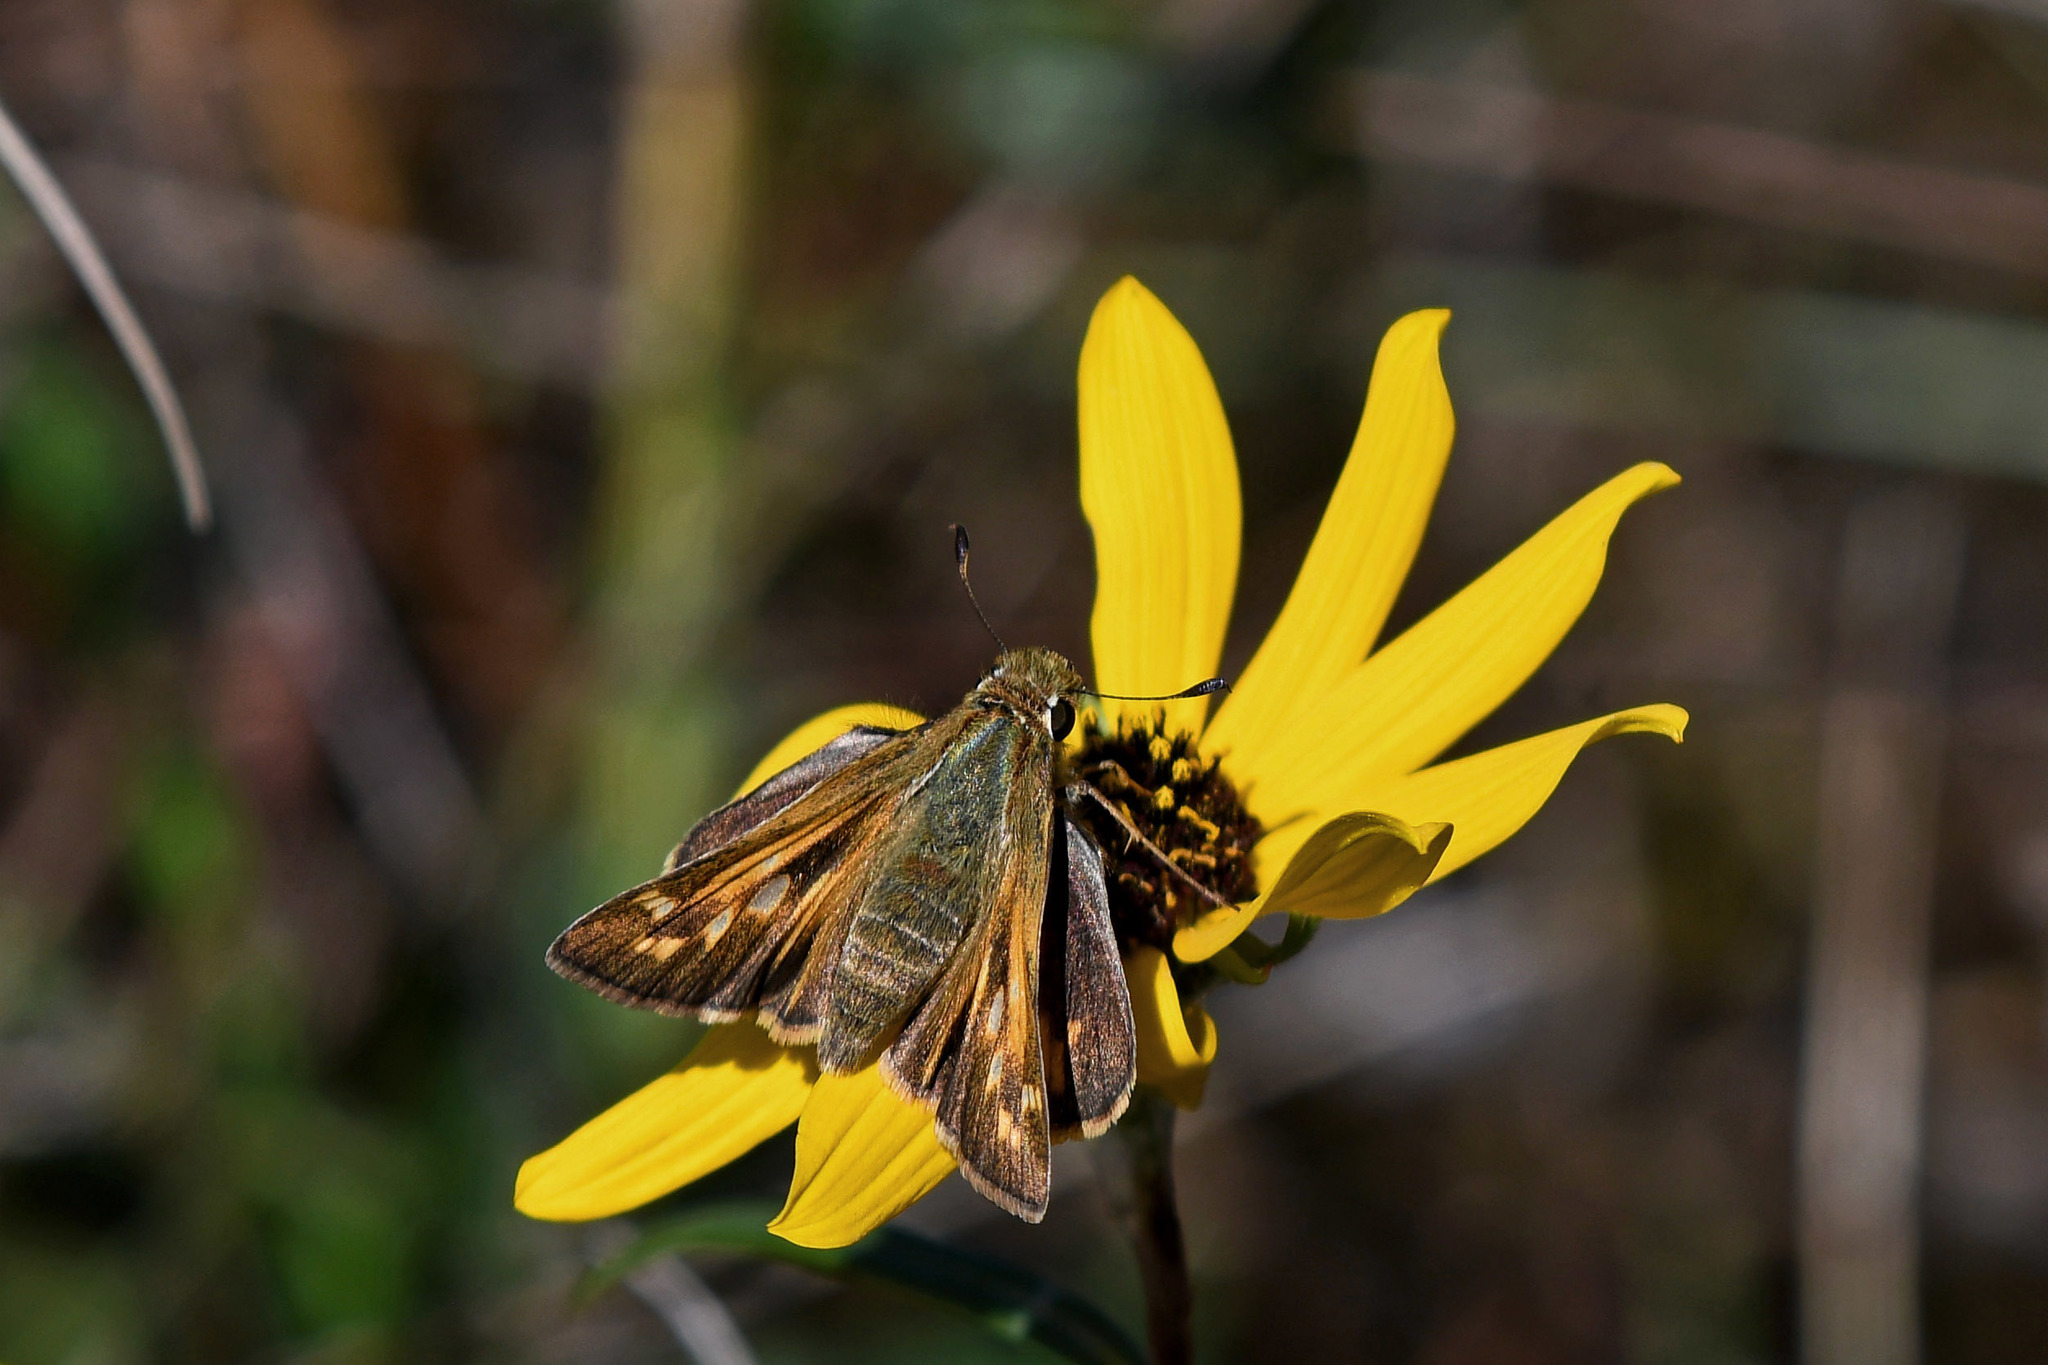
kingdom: Animalia
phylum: Arthropoda
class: Insecta
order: Lepidoptera
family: Hesperiidae
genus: Atalopedes
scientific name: Atalopedes
